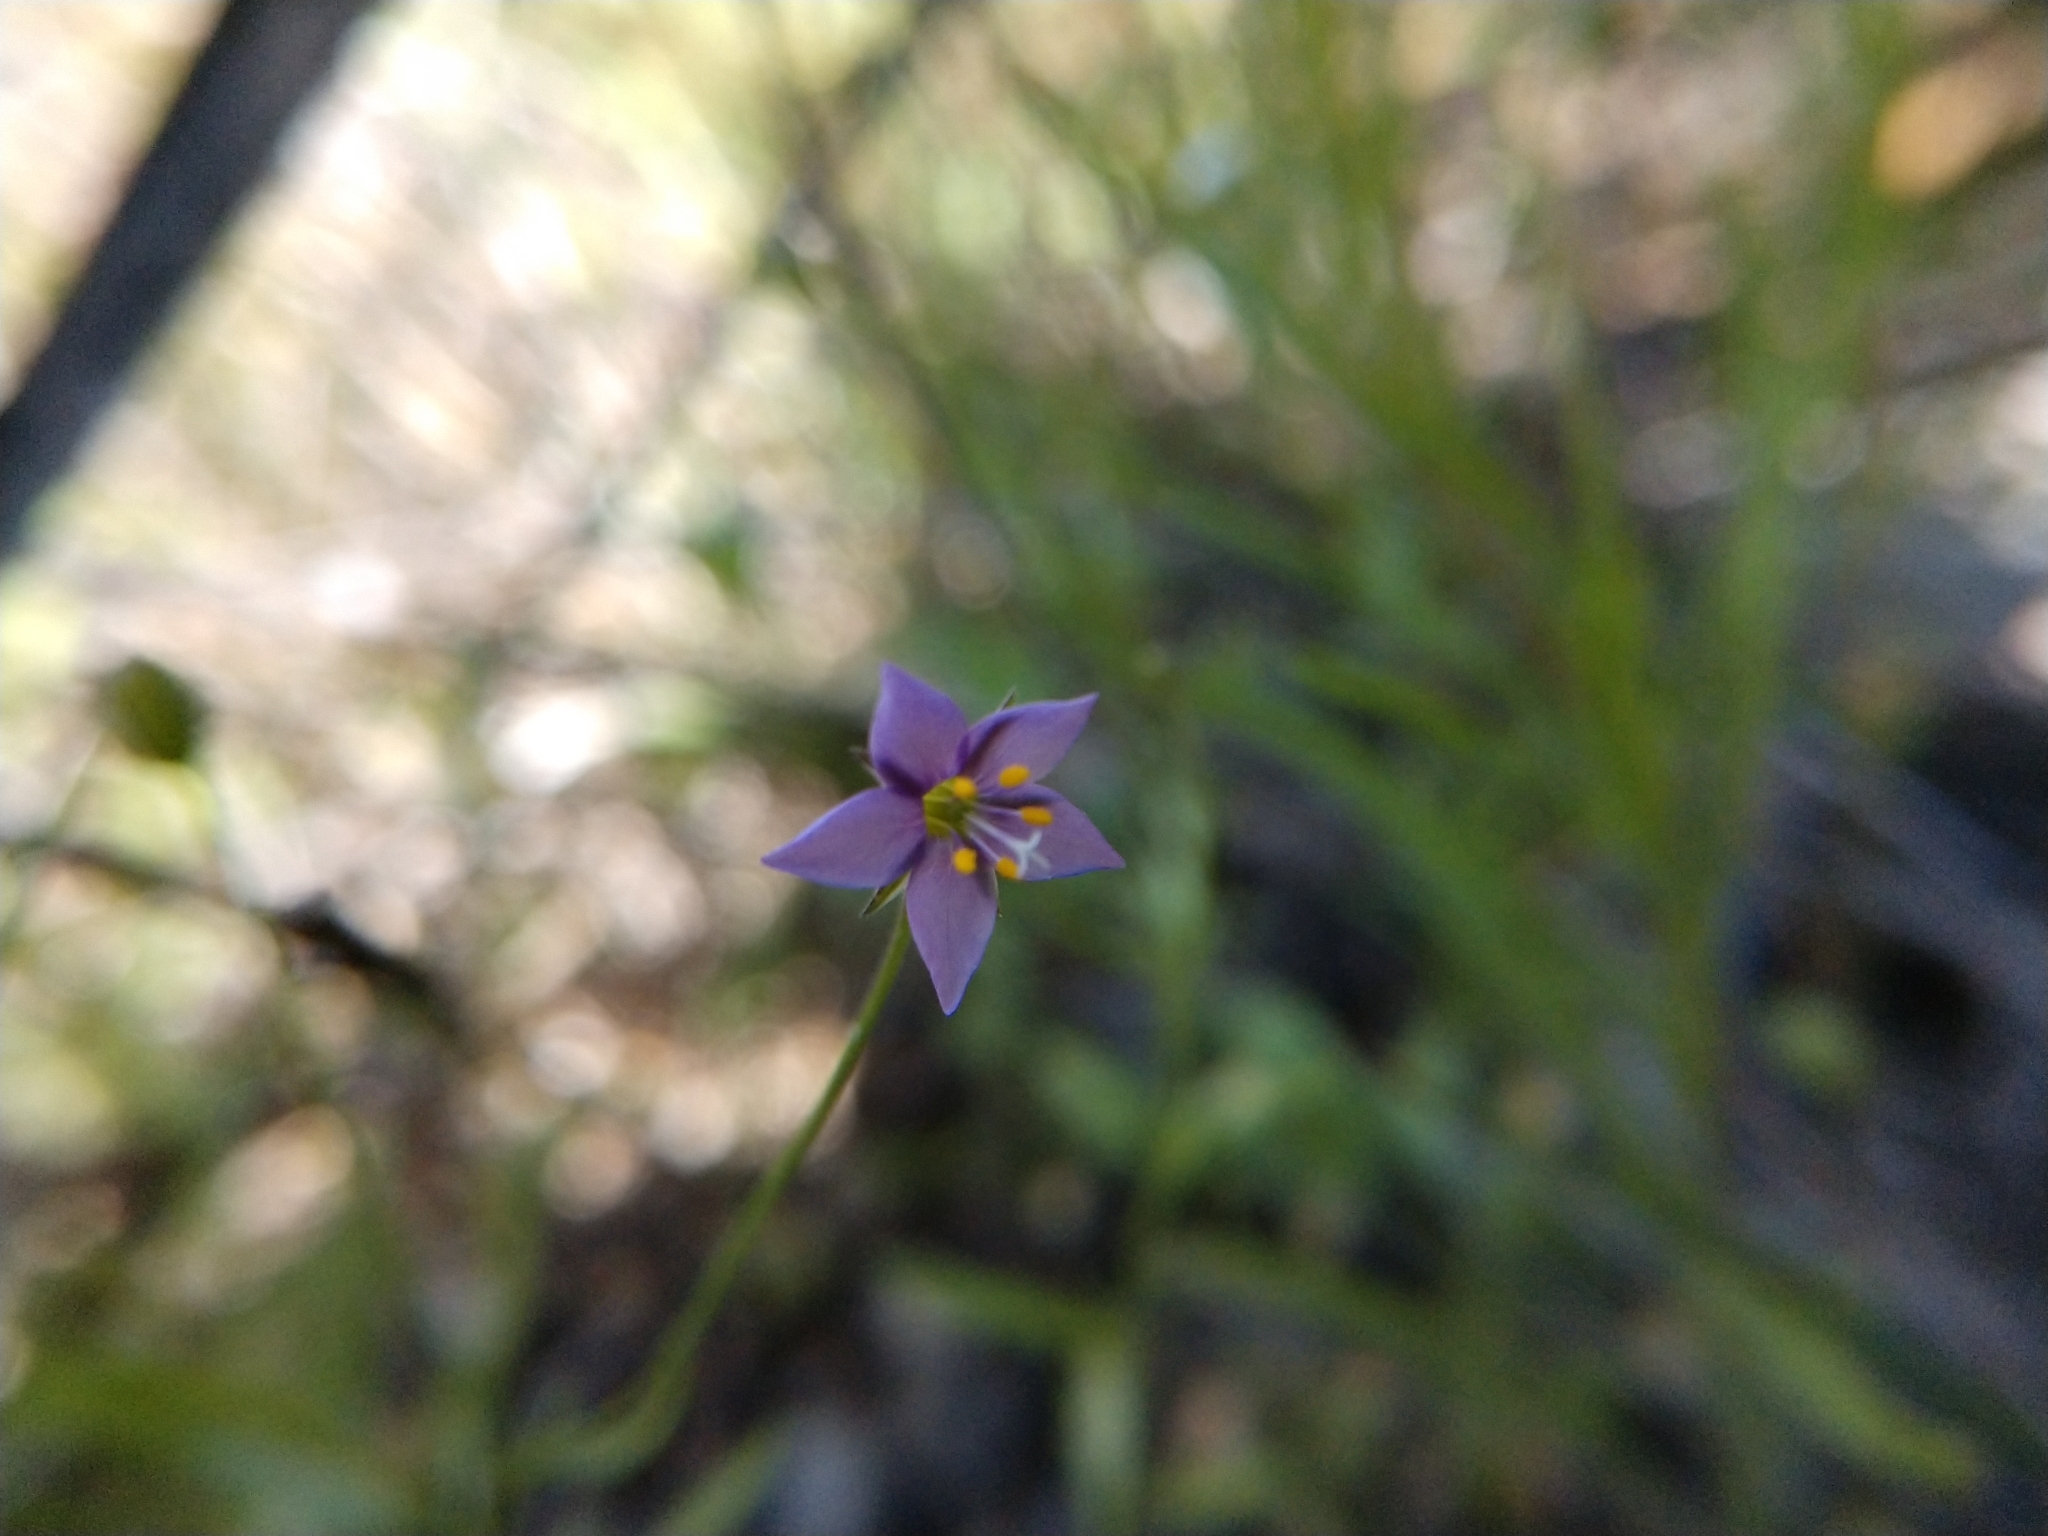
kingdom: Plantae
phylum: Tracheophyta
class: Magnoliopsida
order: Ericales
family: Polemoniaceae
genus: Giliastrum
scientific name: Giliastrum incisum
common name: Splitleaf gilia
